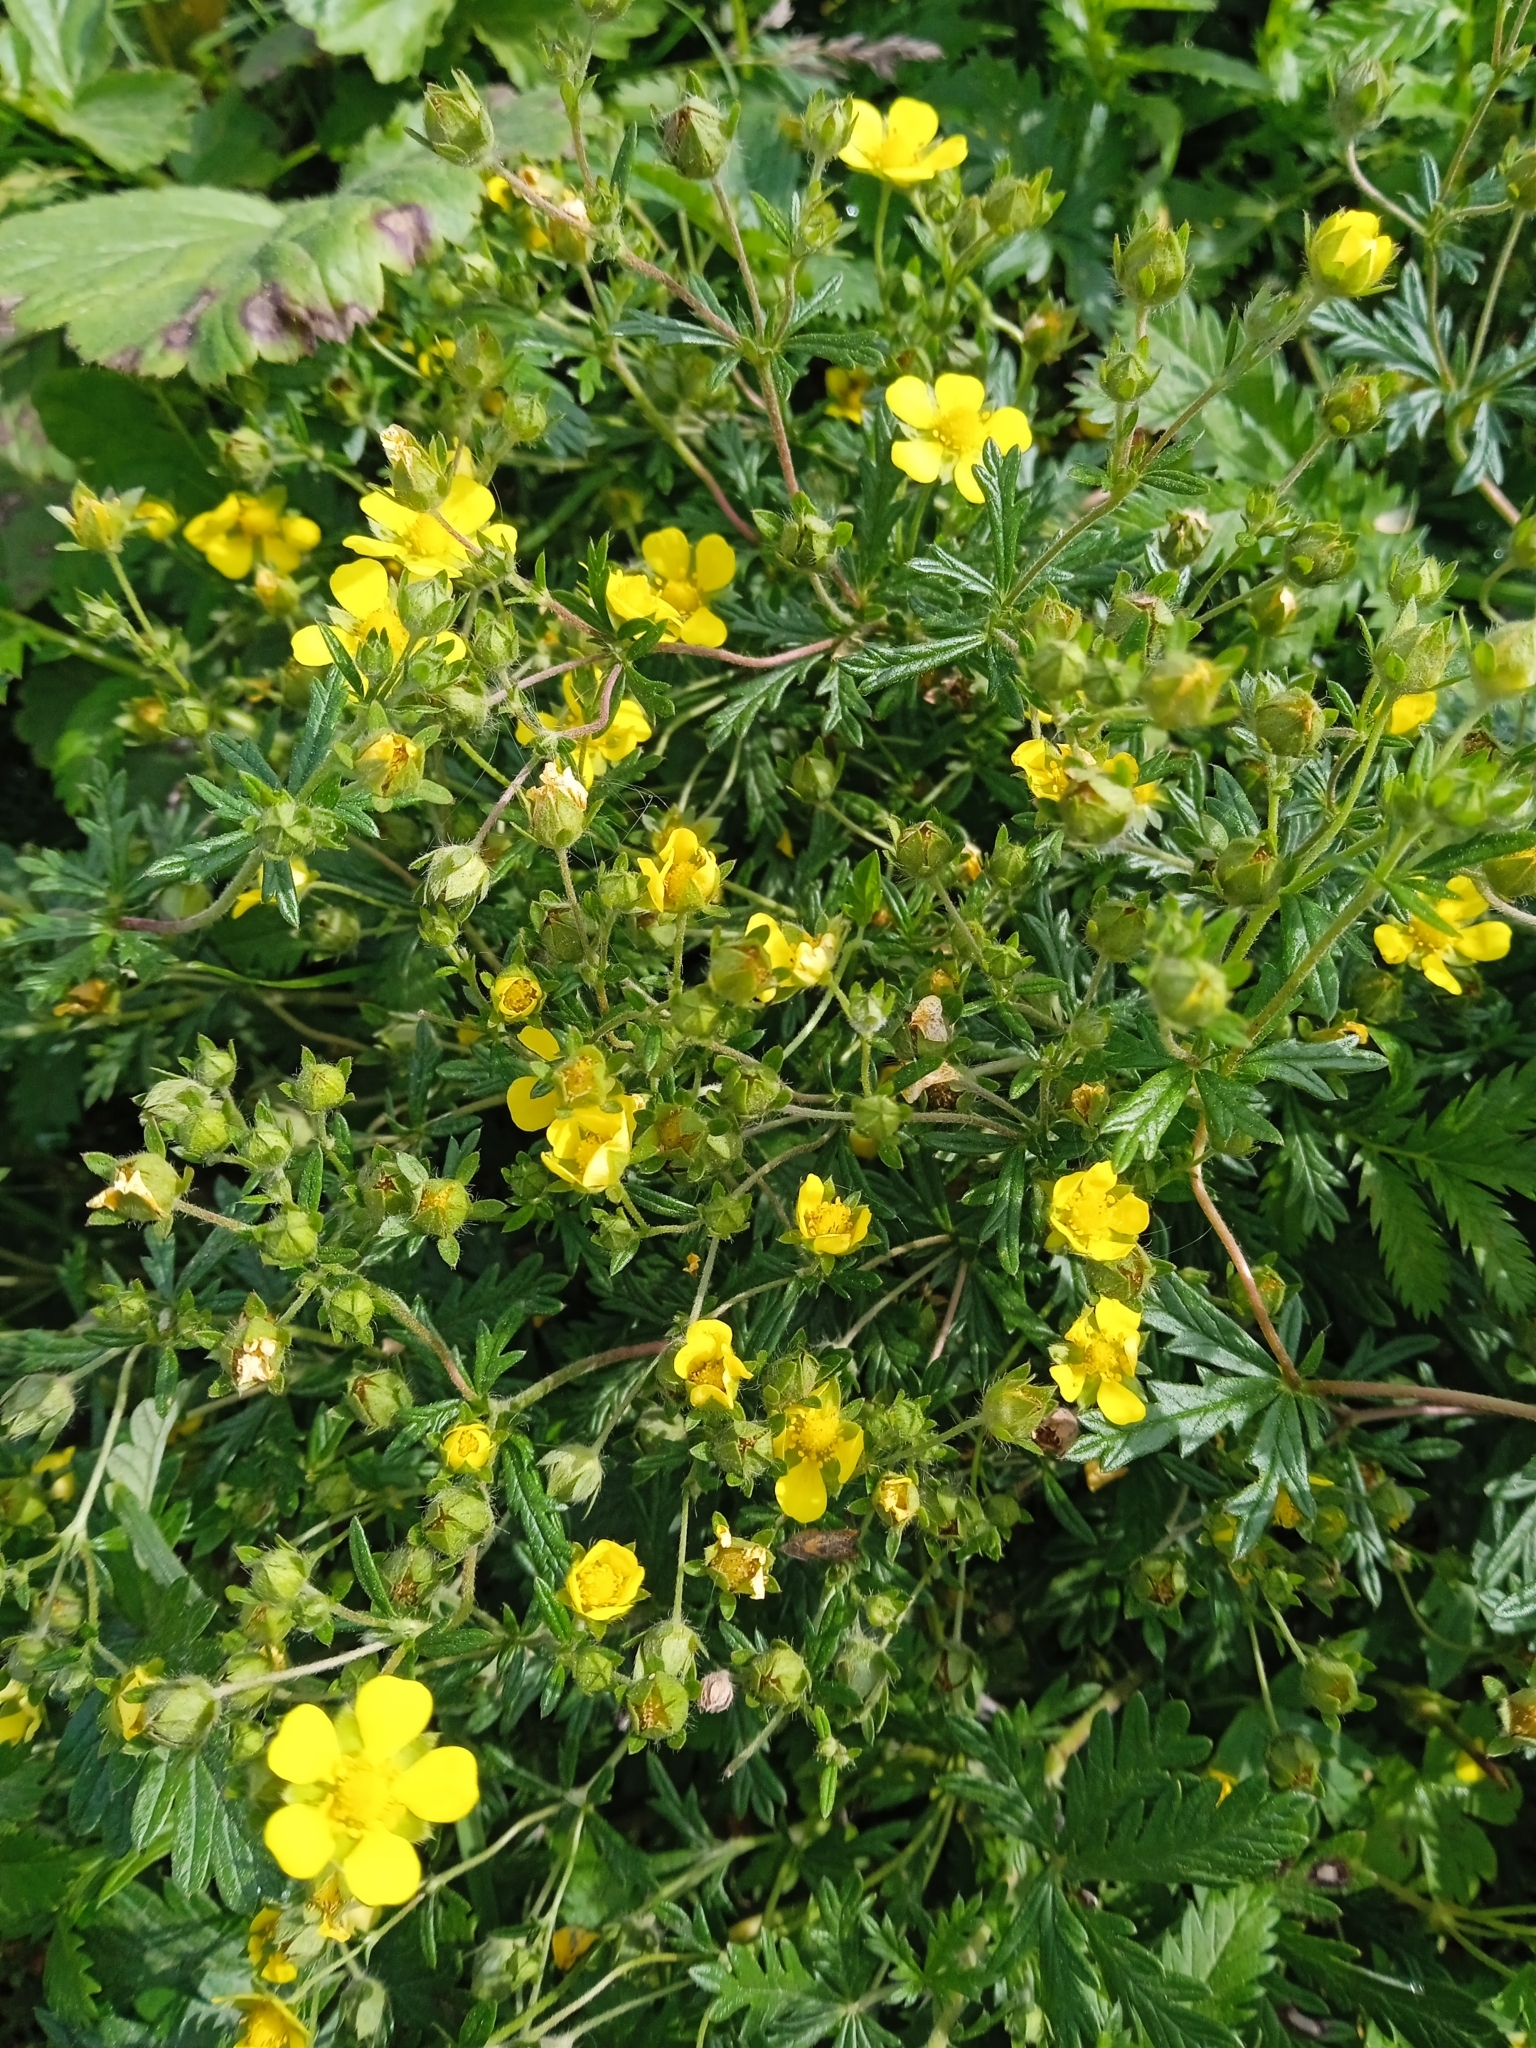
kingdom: Plantae
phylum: Tracheophyta
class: Magnoliopsida
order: Rosales
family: Rosaceae
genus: Potentilla
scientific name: Potentilla argentea
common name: Hoary cinquefoil
